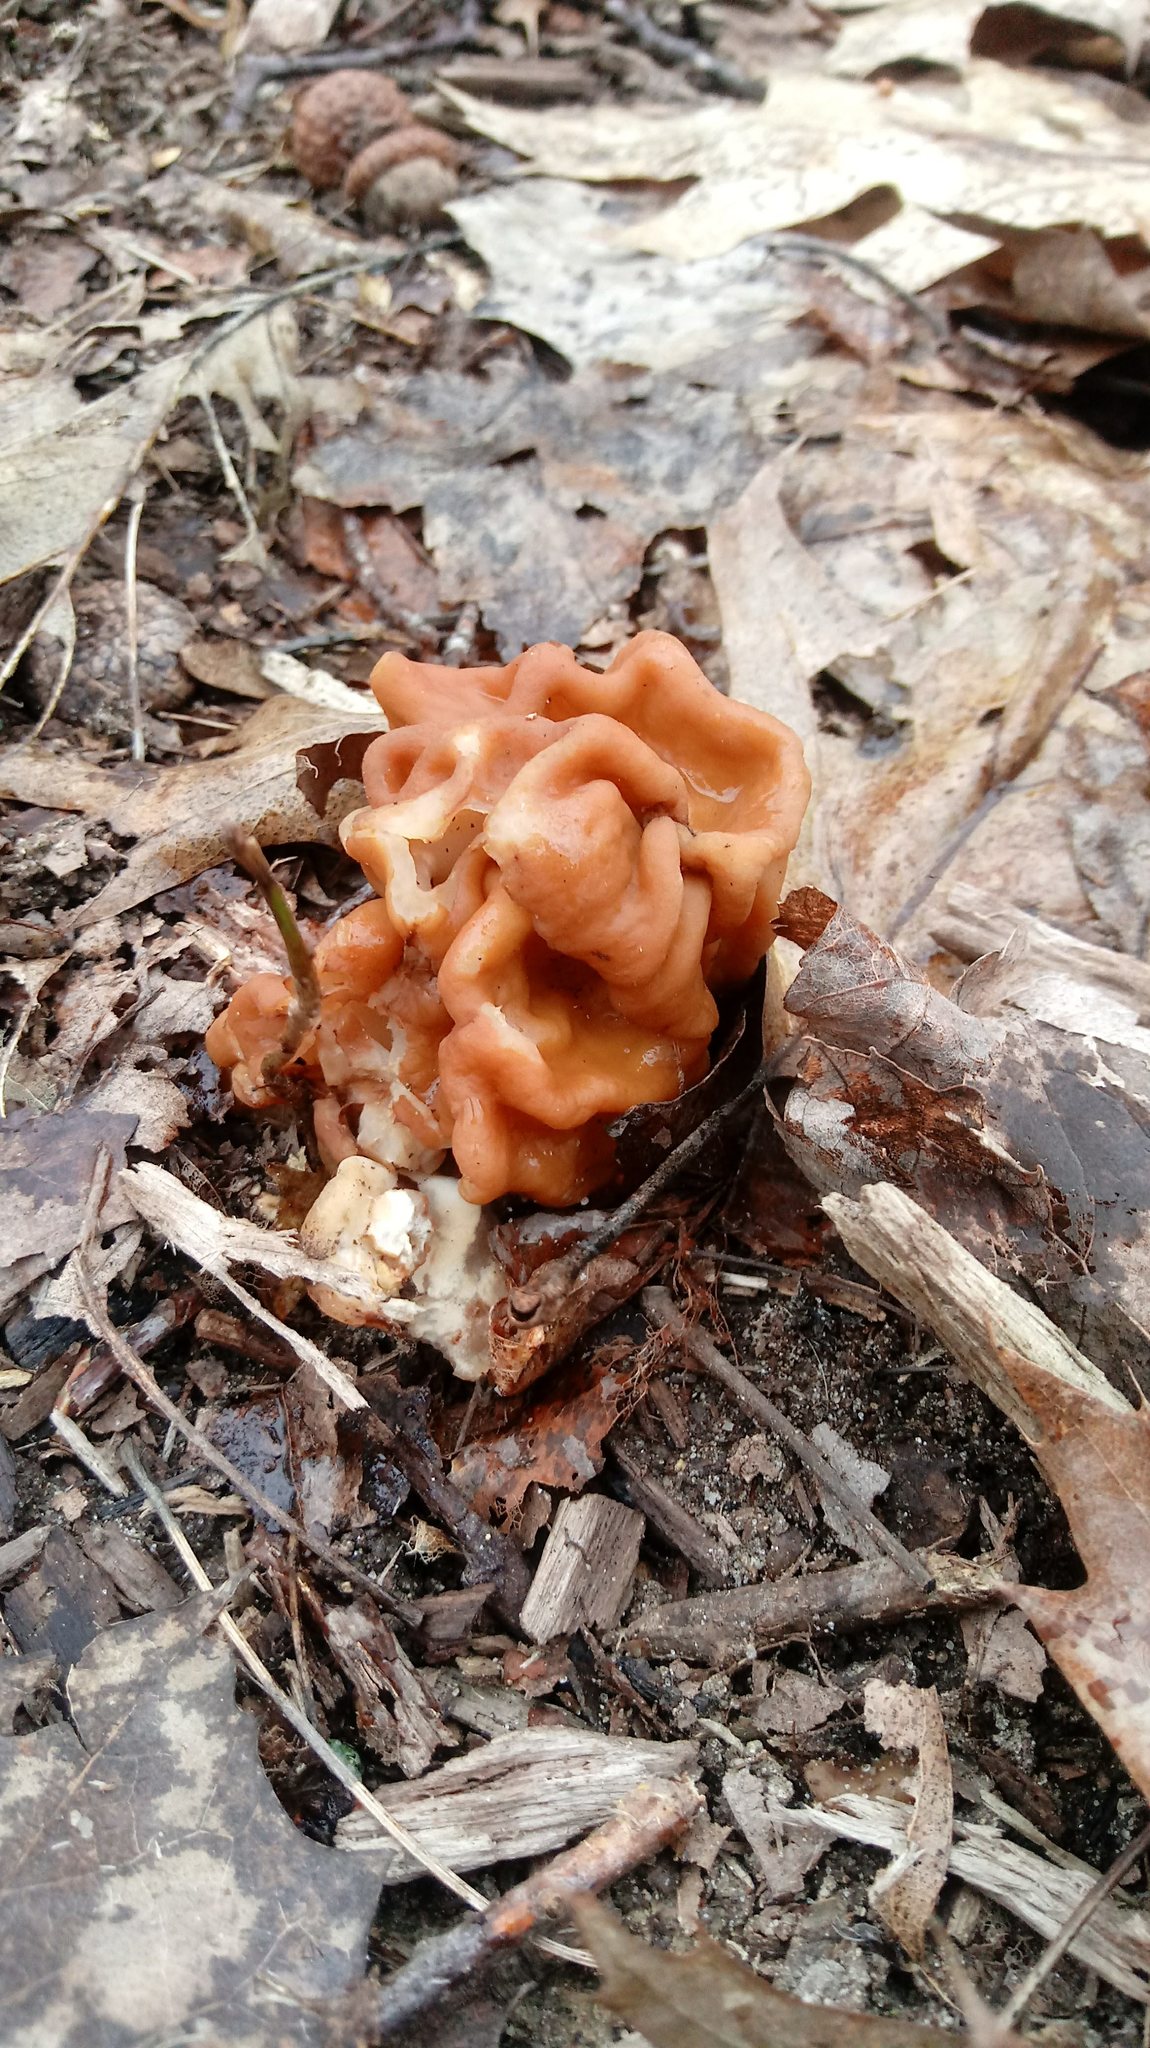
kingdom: Fungi
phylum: Ascomycota
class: Pezizomycetes
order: Pezizales
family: Discinaceae
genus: Gyromitra
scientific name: Gyromitra korfii
